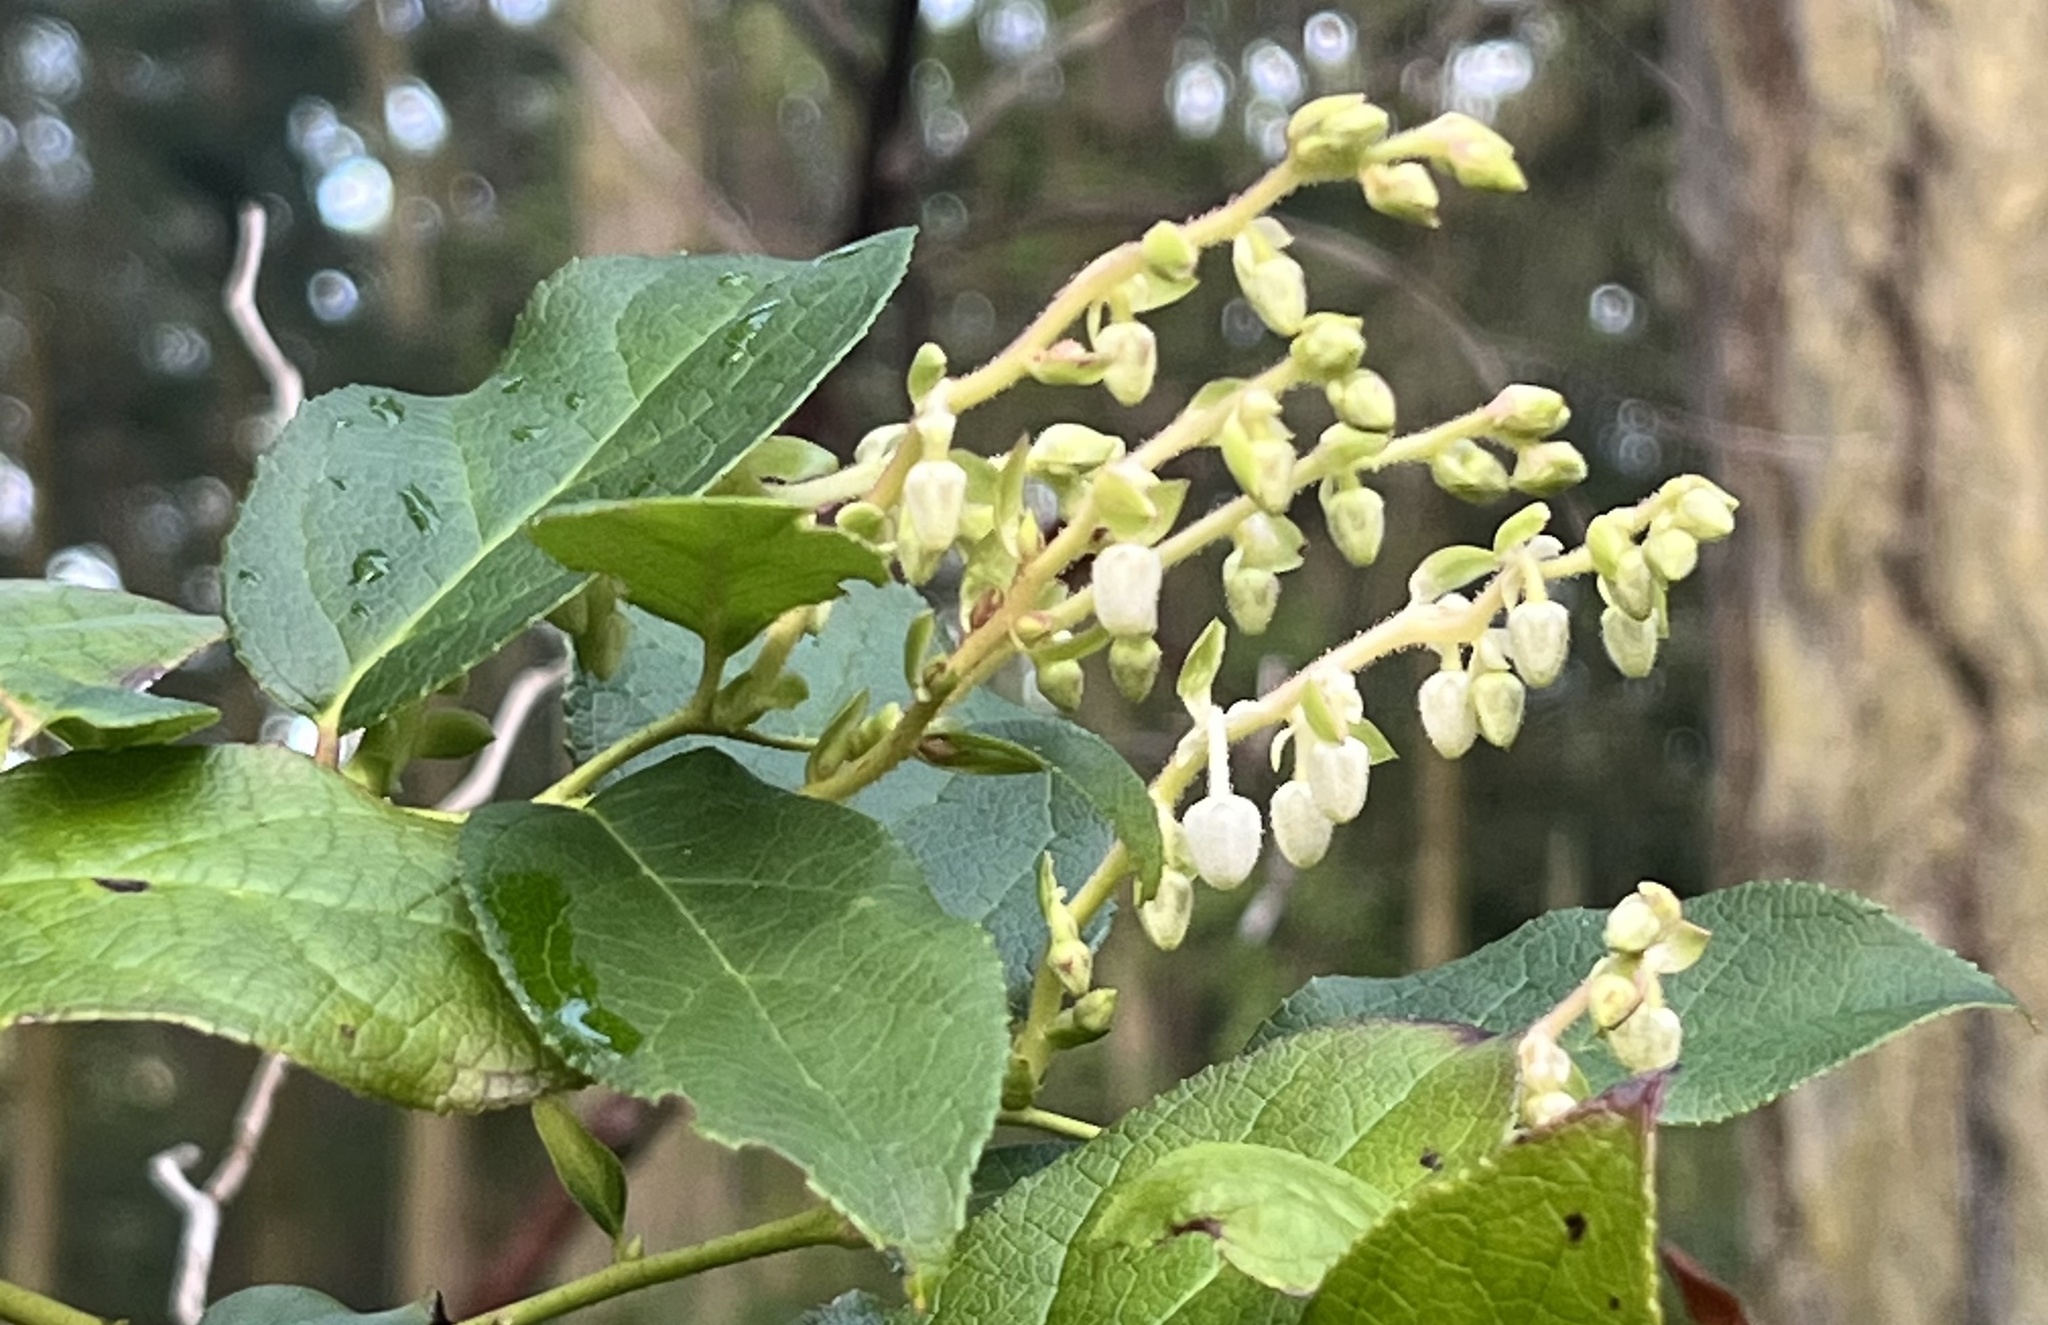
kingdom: Plantae
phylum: Tracheophyta
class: Magnoliopsida
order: Ericales
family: Ericaceae
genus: Gaultheria
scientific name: Gaultheria shallon
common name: Shallon
